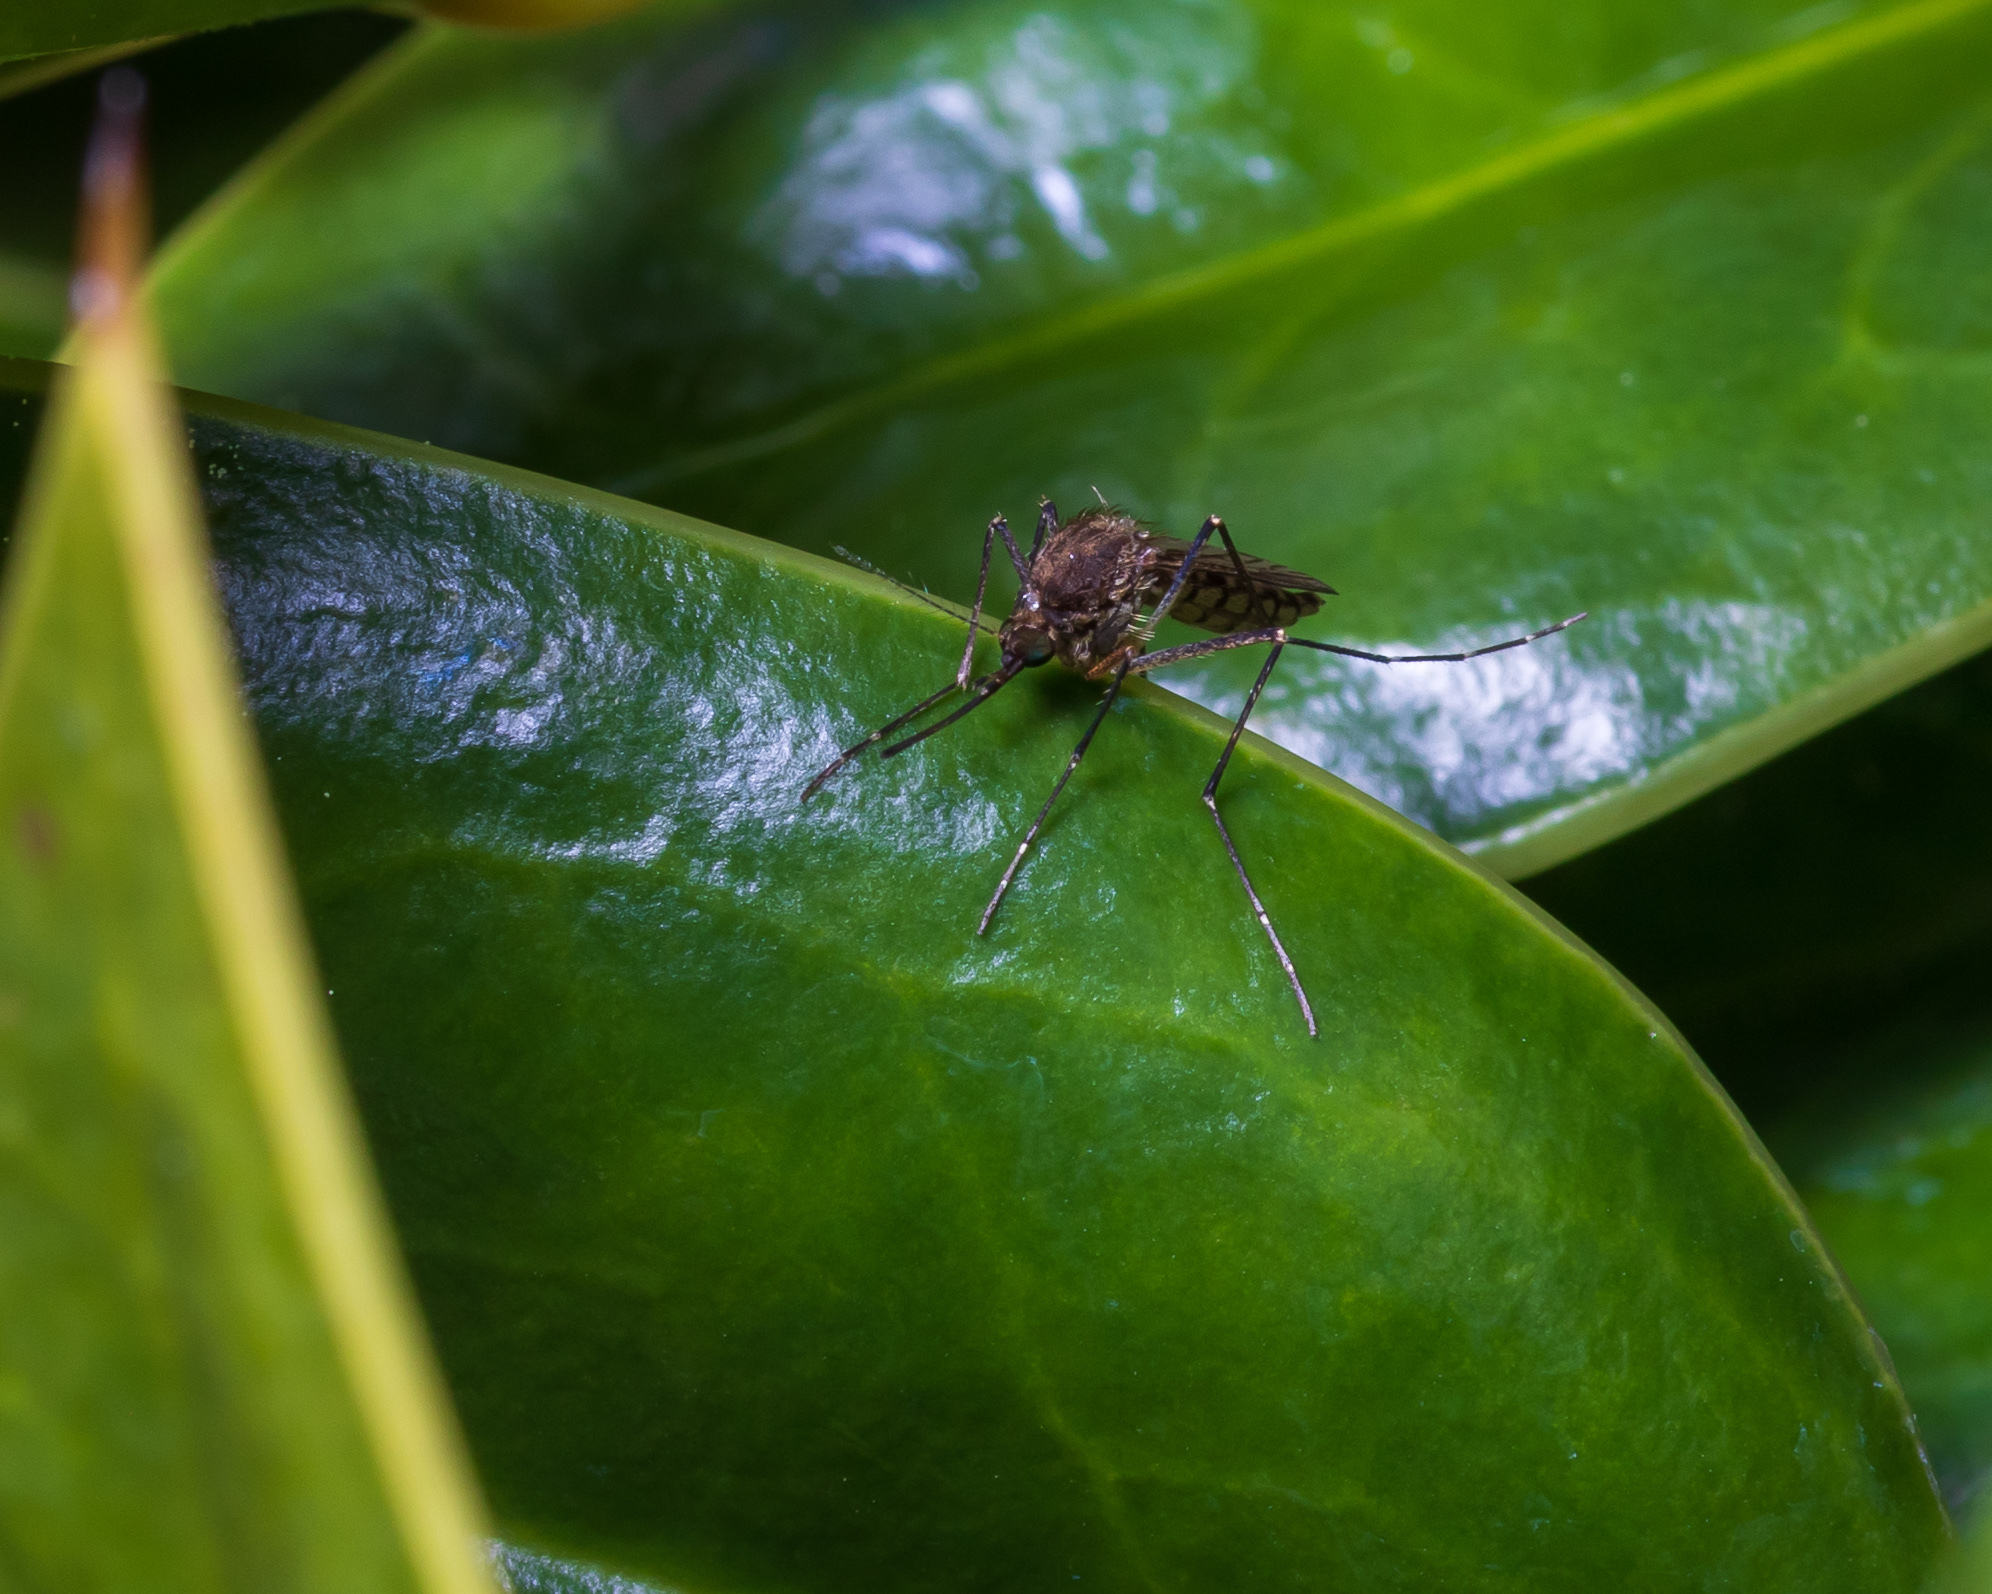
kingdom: Animalia
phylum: Arthropoda
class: Insecta
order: Diptera
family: Culicidae
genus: Aedes
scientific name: Aedes vexans
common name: Inland floodwater mosquito
